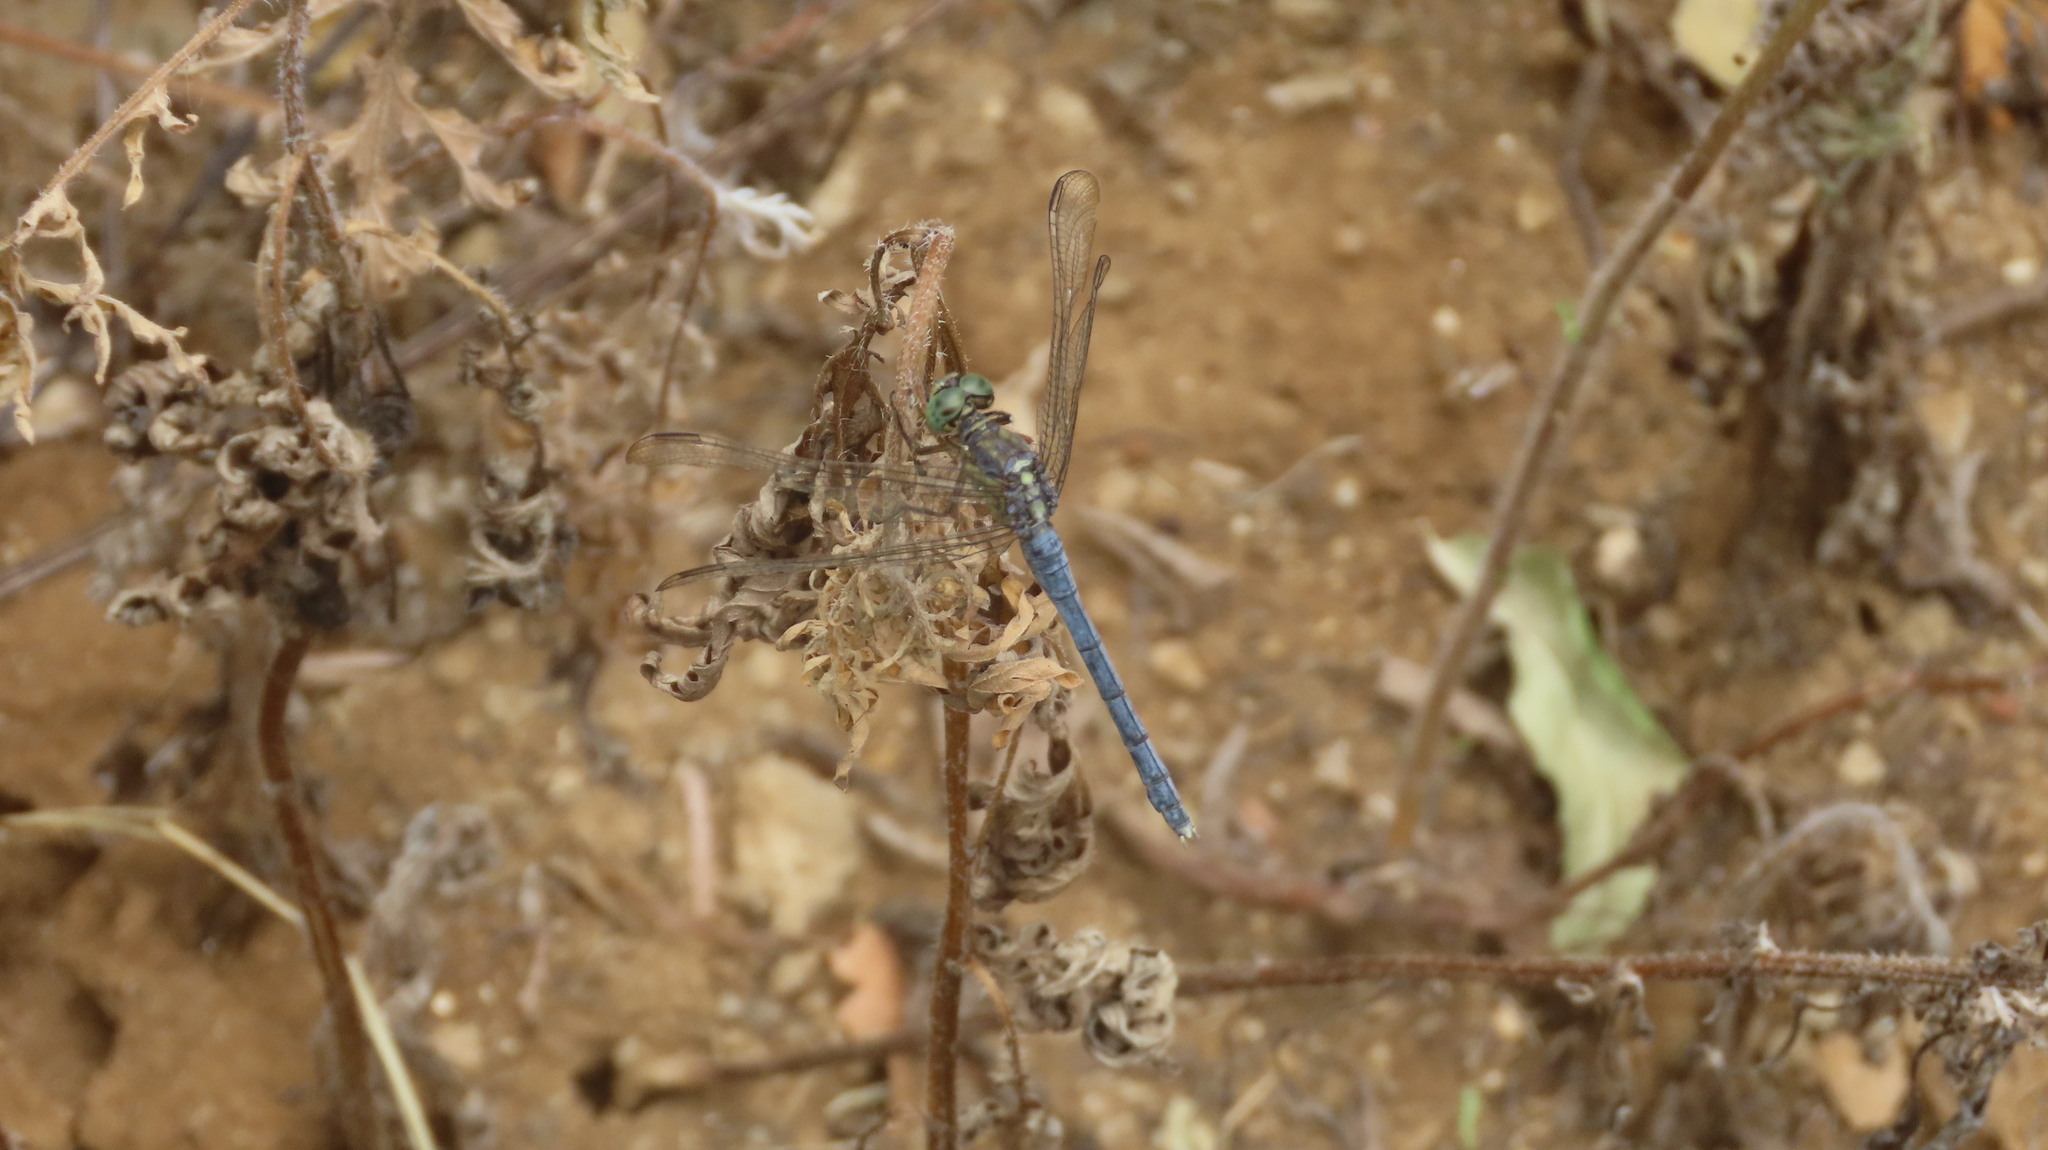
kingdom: Animalia
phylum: Arthropoda
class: Insecta
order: Odonata
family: Libellulidae
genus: Orthetrum
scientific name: Orthetrum luzonicum
